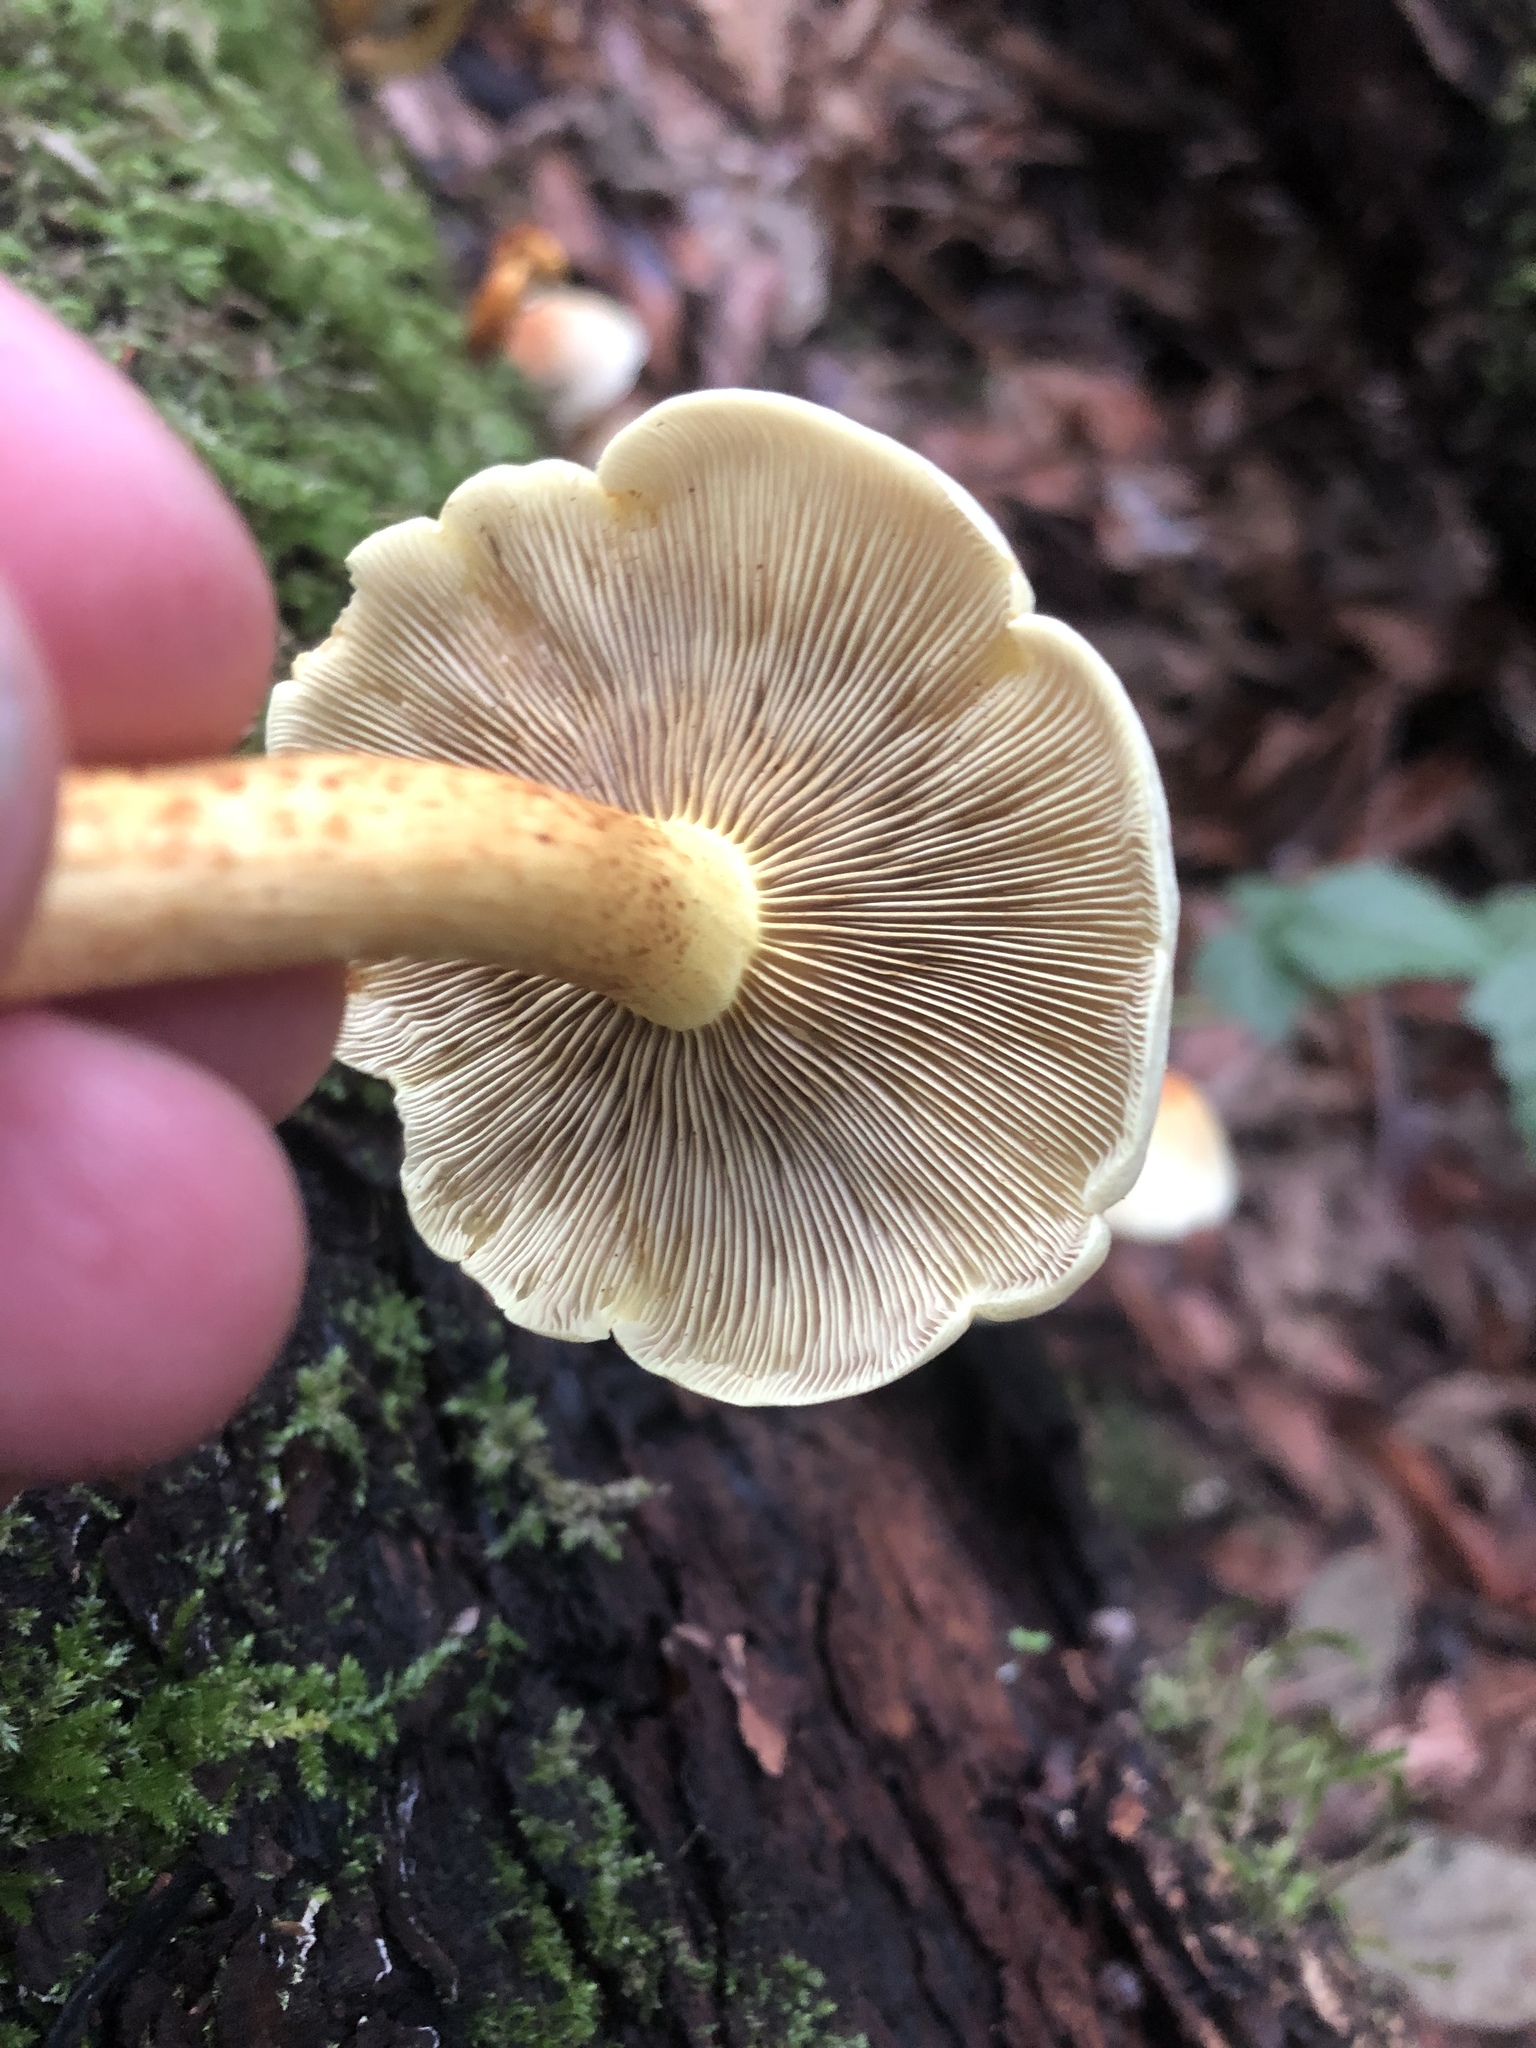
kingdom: Fungi
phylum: Basidiomycota
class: Agaricomycetes
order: Agaricales
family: Strophariaceae
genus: Hypholoma
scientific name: Hypholoma fasciculare
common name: Sulphur tuft
